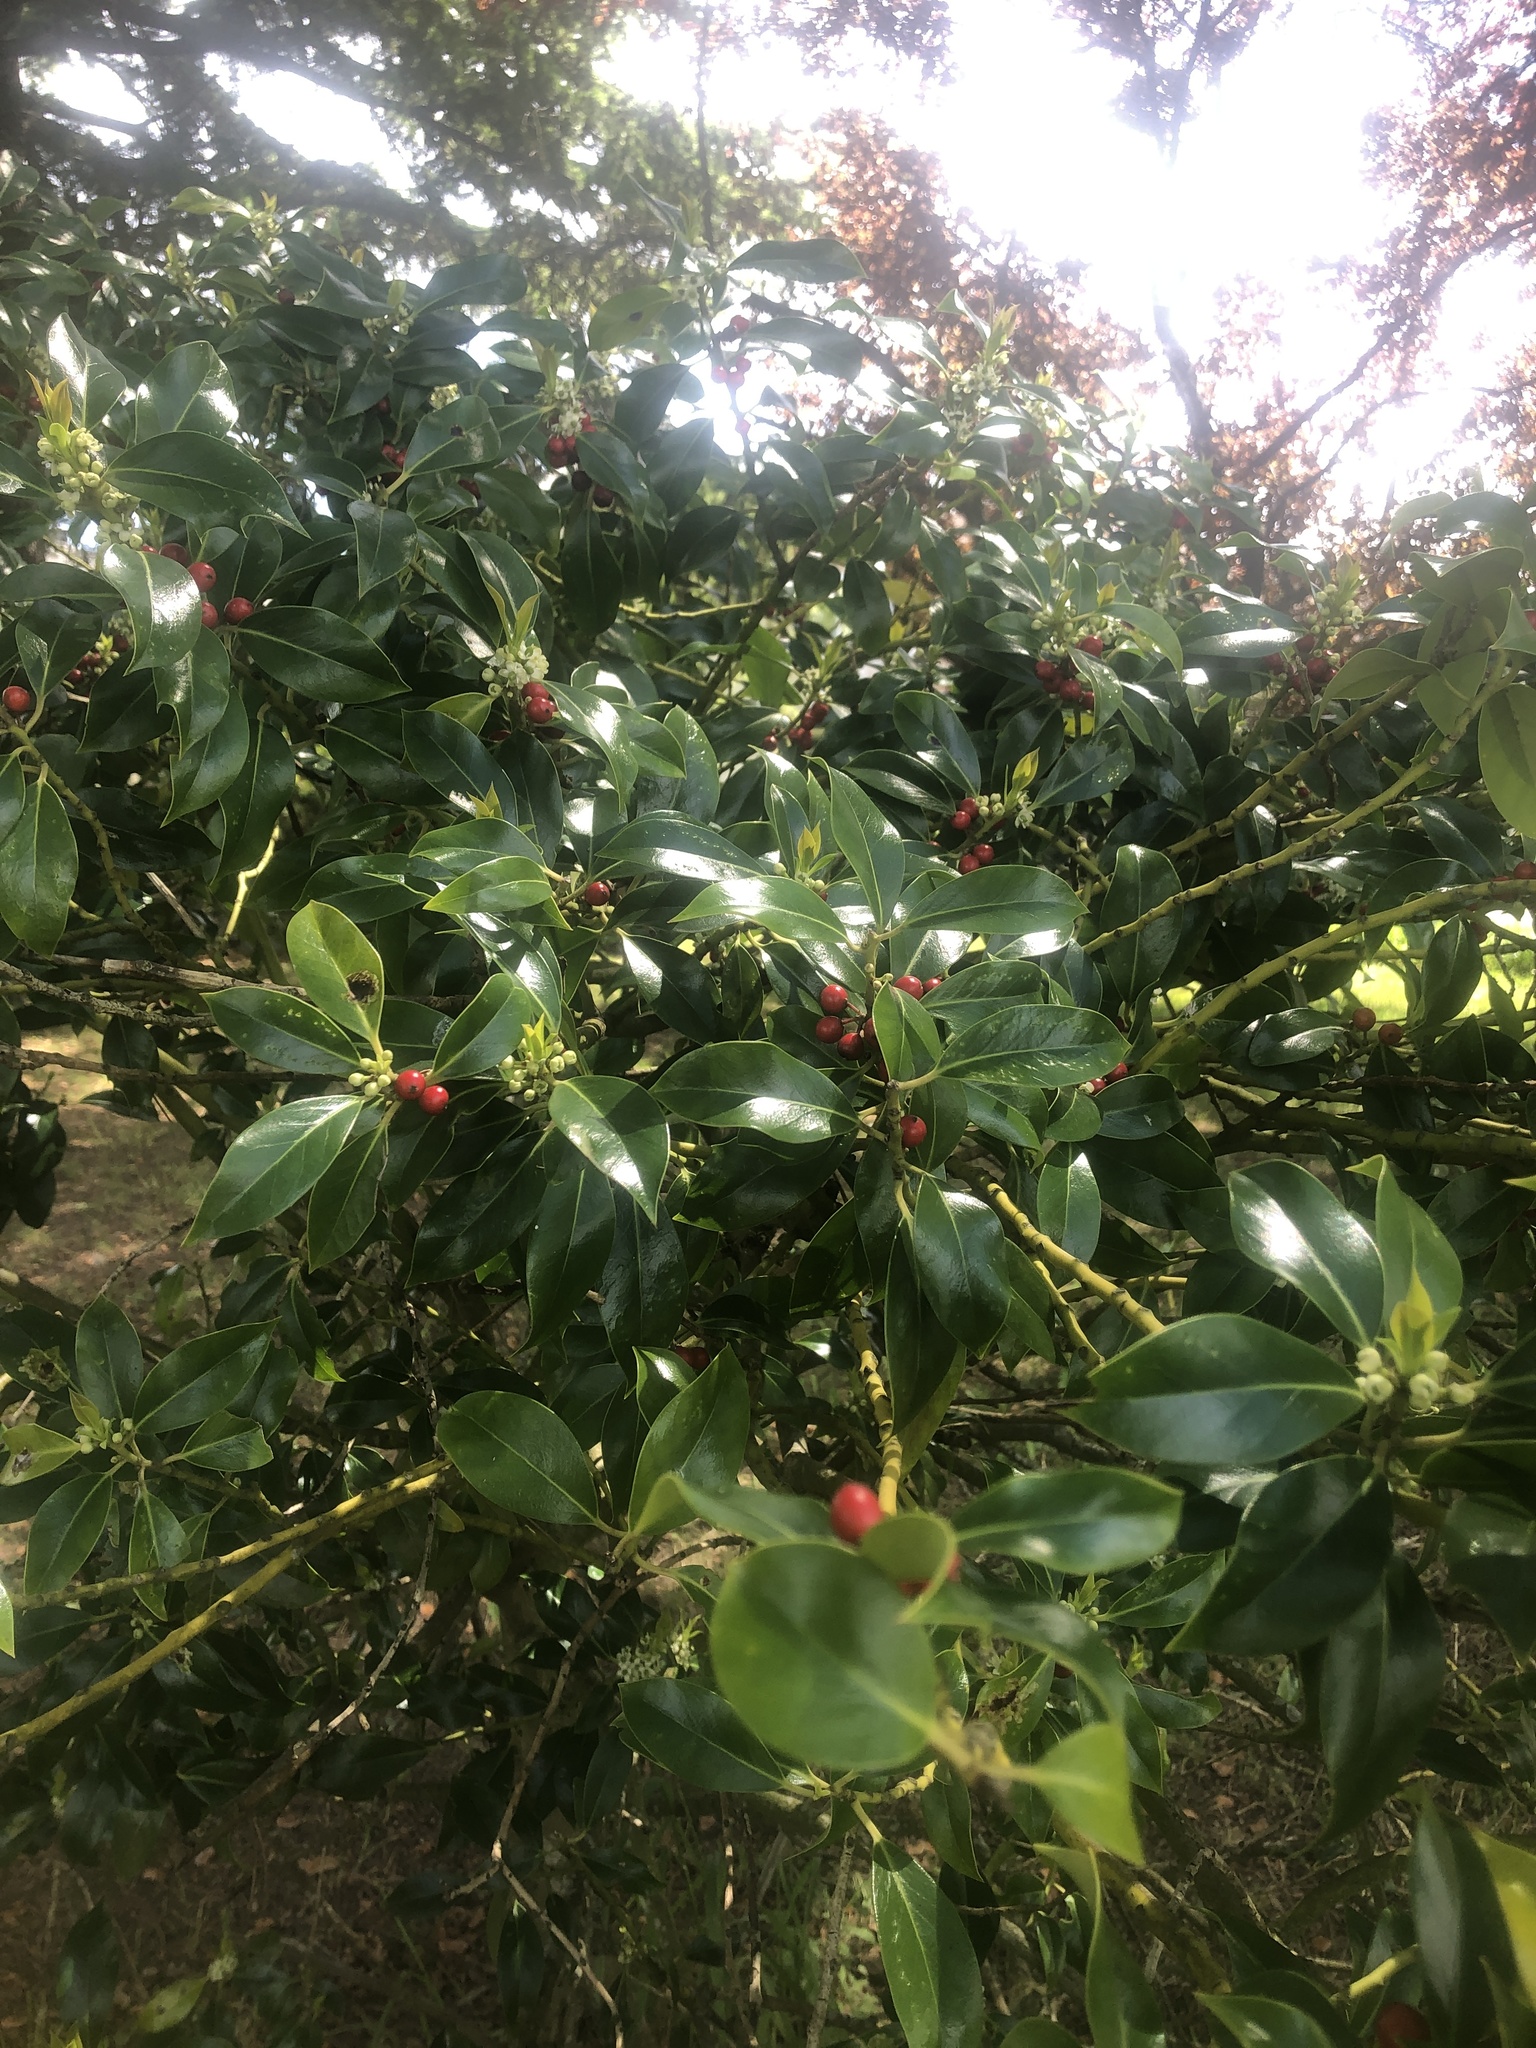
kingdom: Plantae
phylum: Tracheophyta
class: Magnoliopsida
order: Aquifoliales
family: Aquifoliaceae
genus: Ilex
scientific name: Ilex aquifolium
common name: English holly
